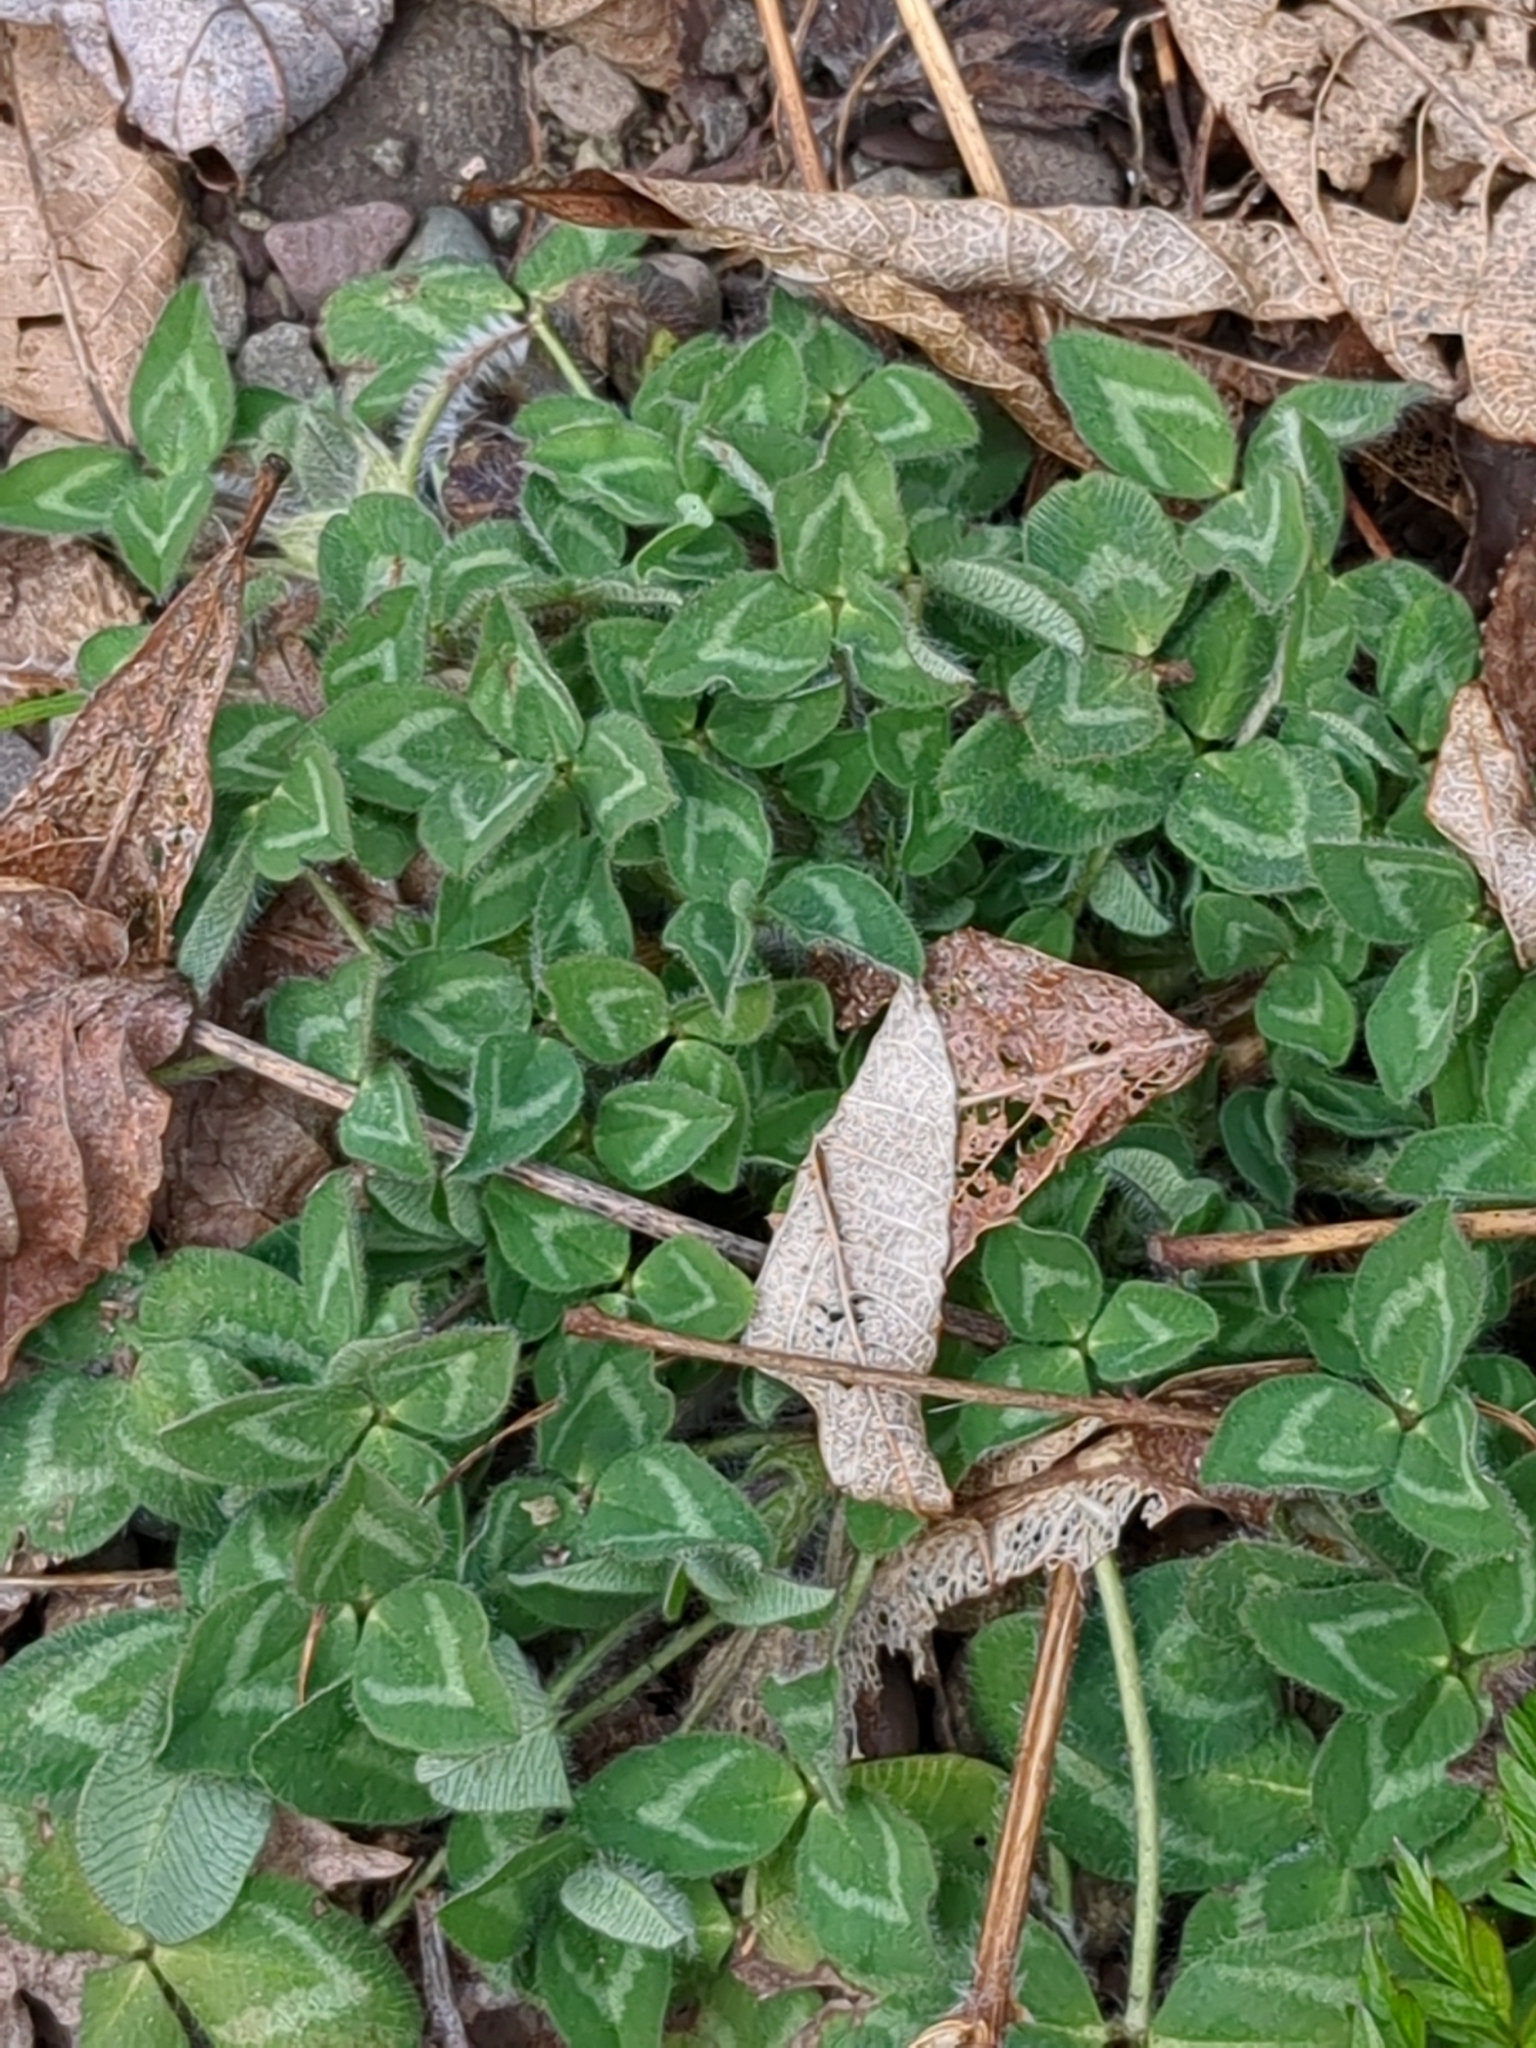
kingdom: Plantae
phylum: Tracheophyta
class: Magnoliopsida
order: Fabales
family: Fabaceae
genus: Trifolium
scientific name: Trifolium pratense
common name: Red clover
